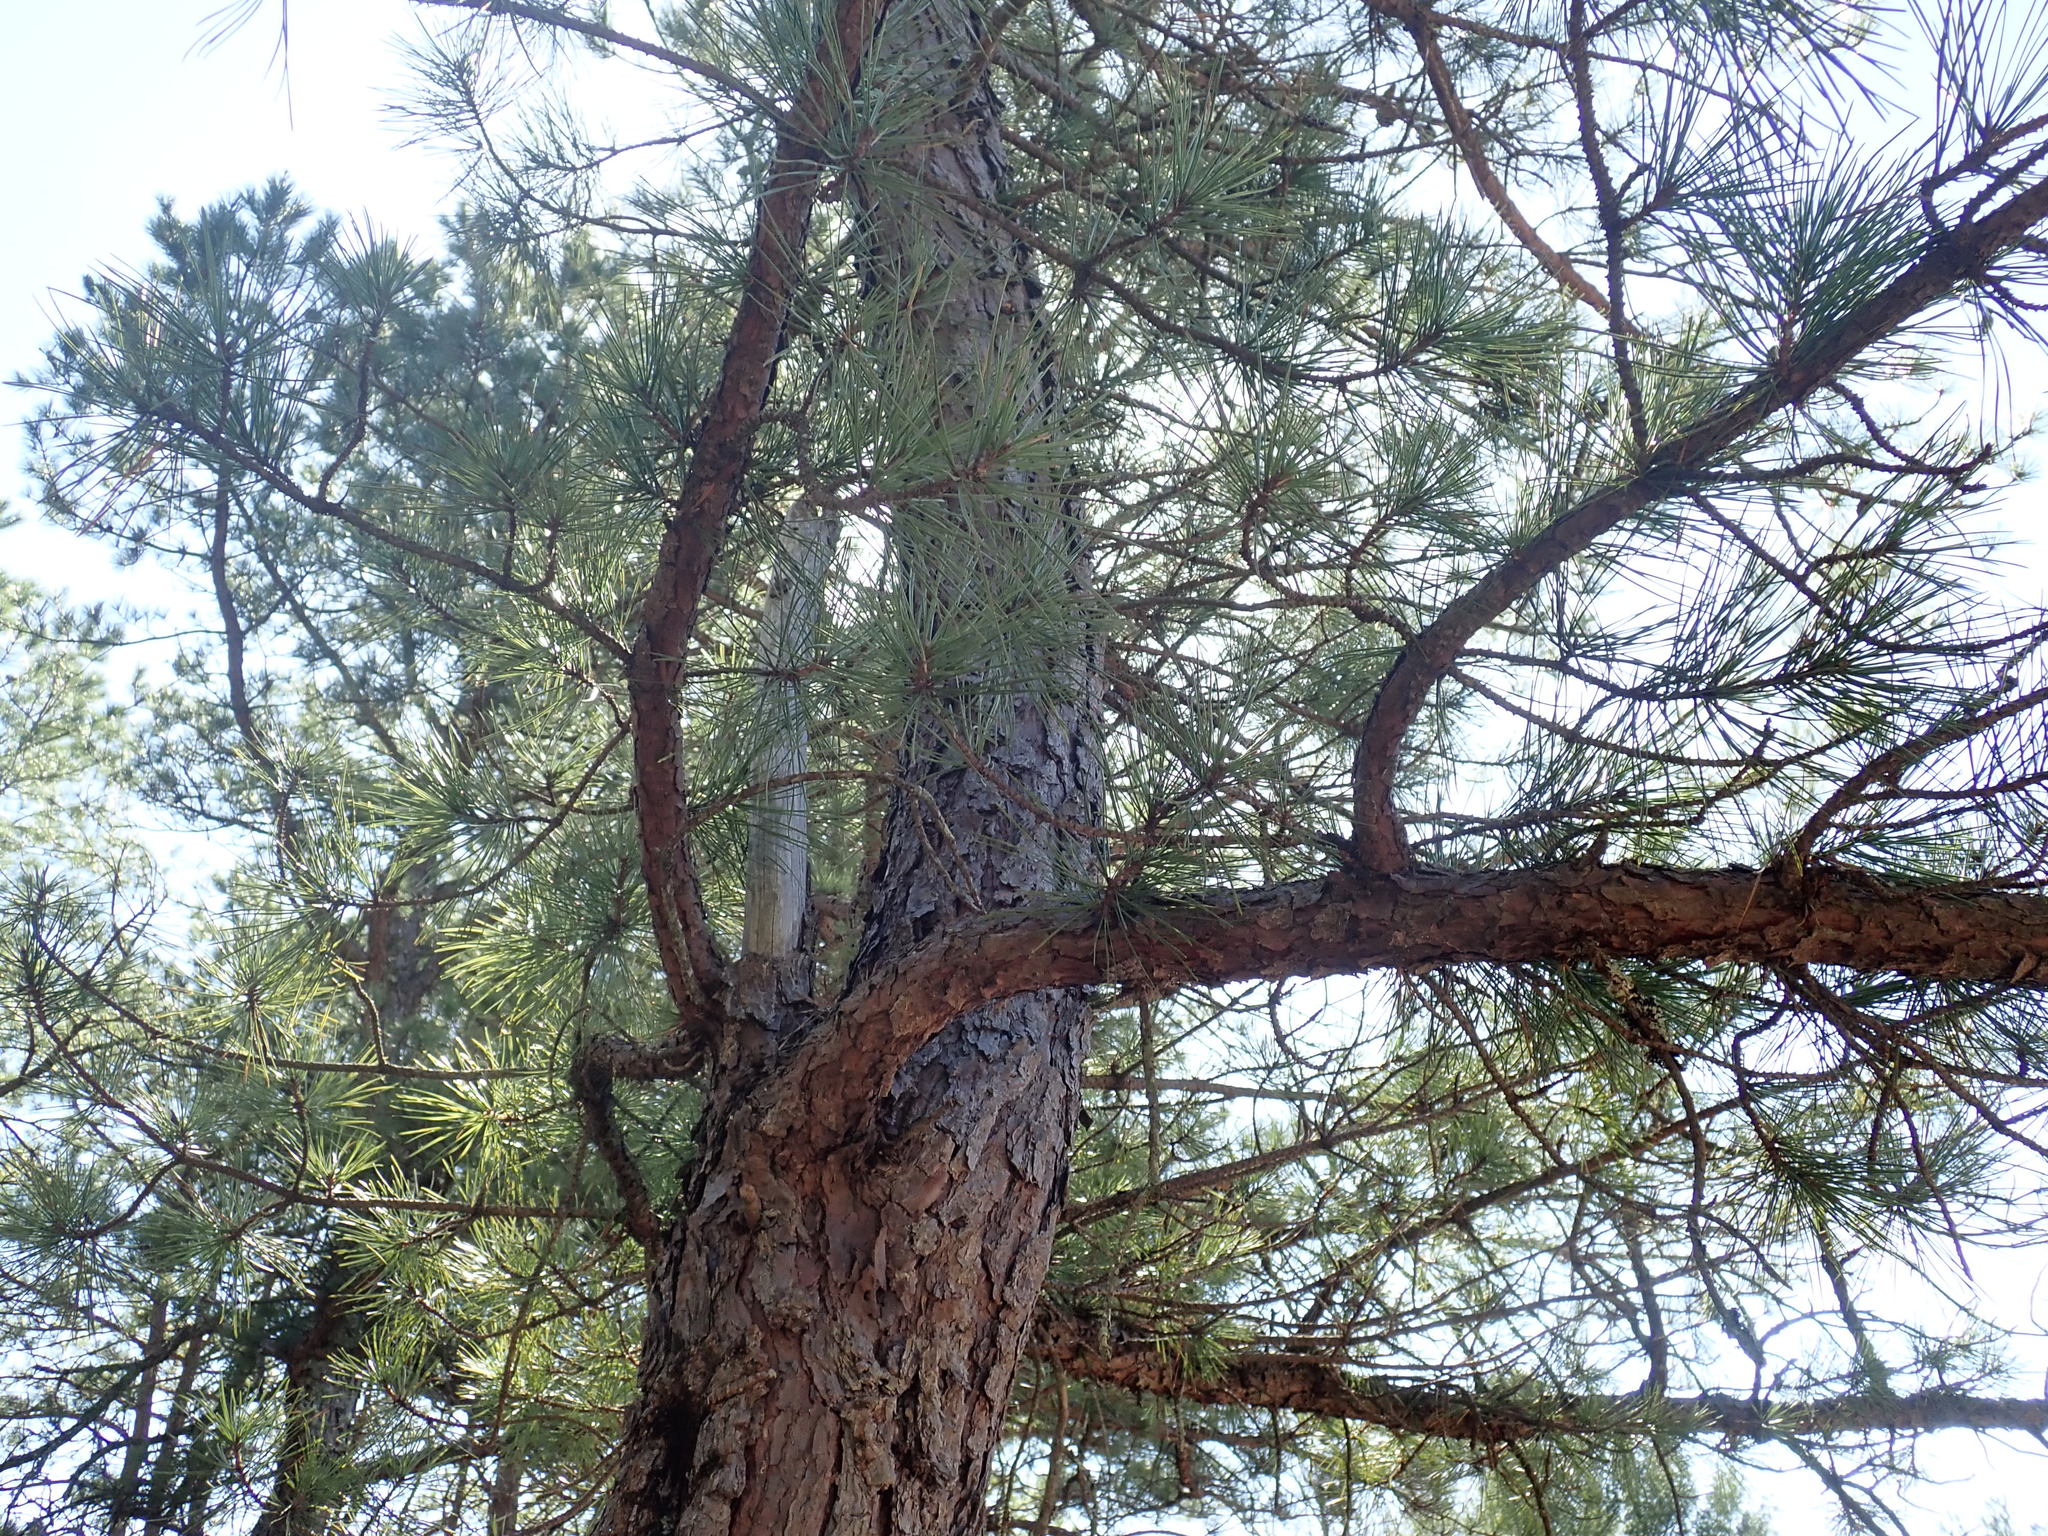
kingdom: Plantae
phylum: Tracheophyta
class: Pinopsida
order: Pinales
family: Pinaceae
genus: Pinus
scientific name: Pinus rigida
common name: Pitch pine
